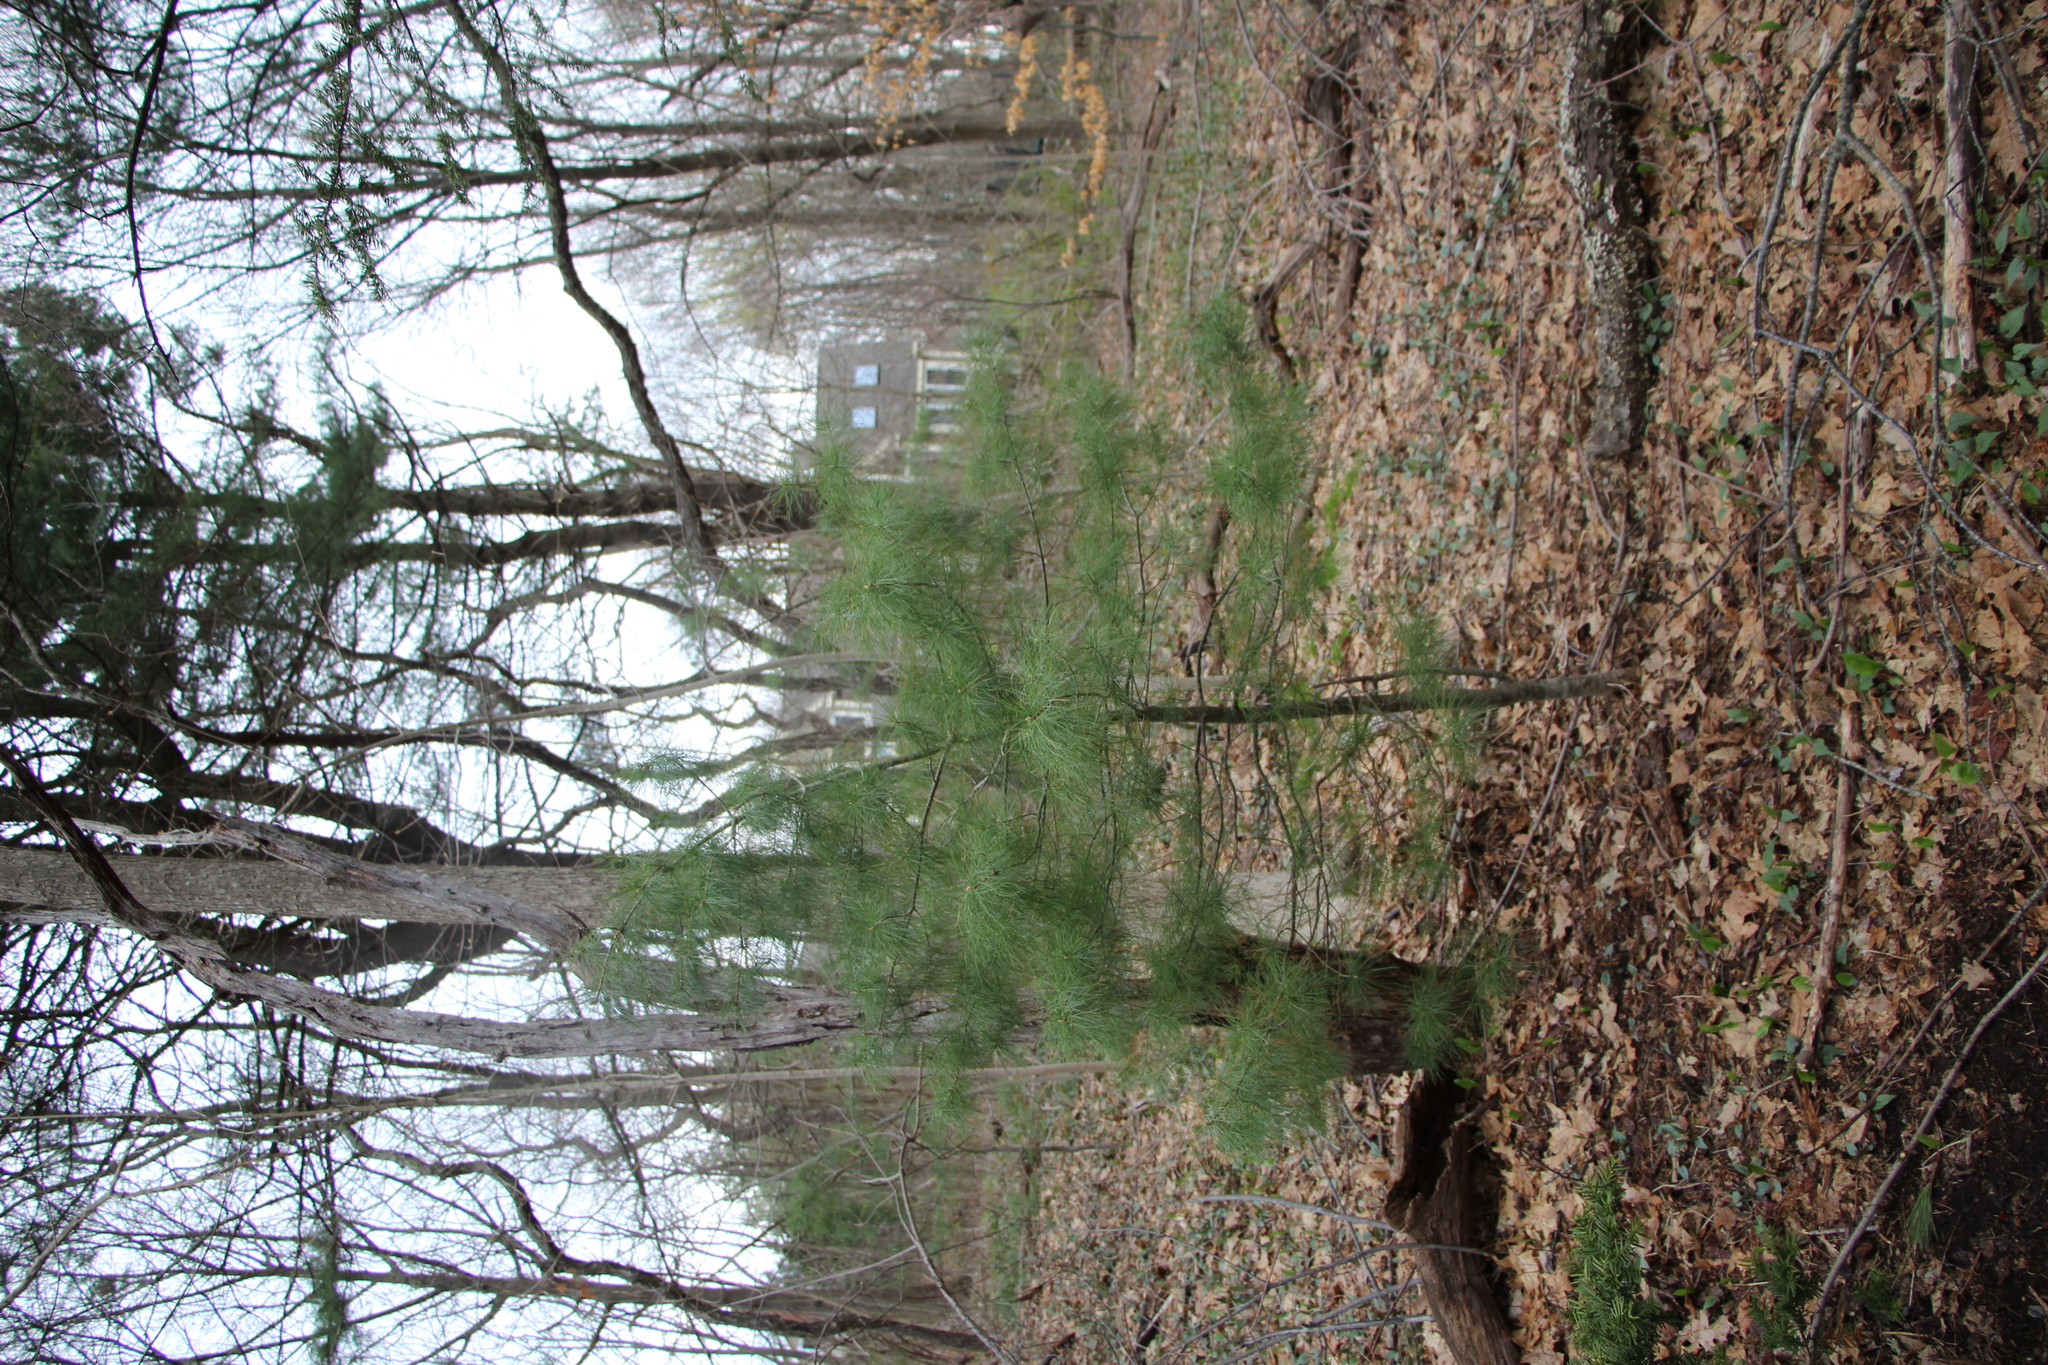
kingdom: Plantae
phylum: Tracheophyta
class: Pinopsida
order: Pinales
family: Pinaceae
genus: Pinus
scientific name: Pinus strobus
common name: Weymouth pine
